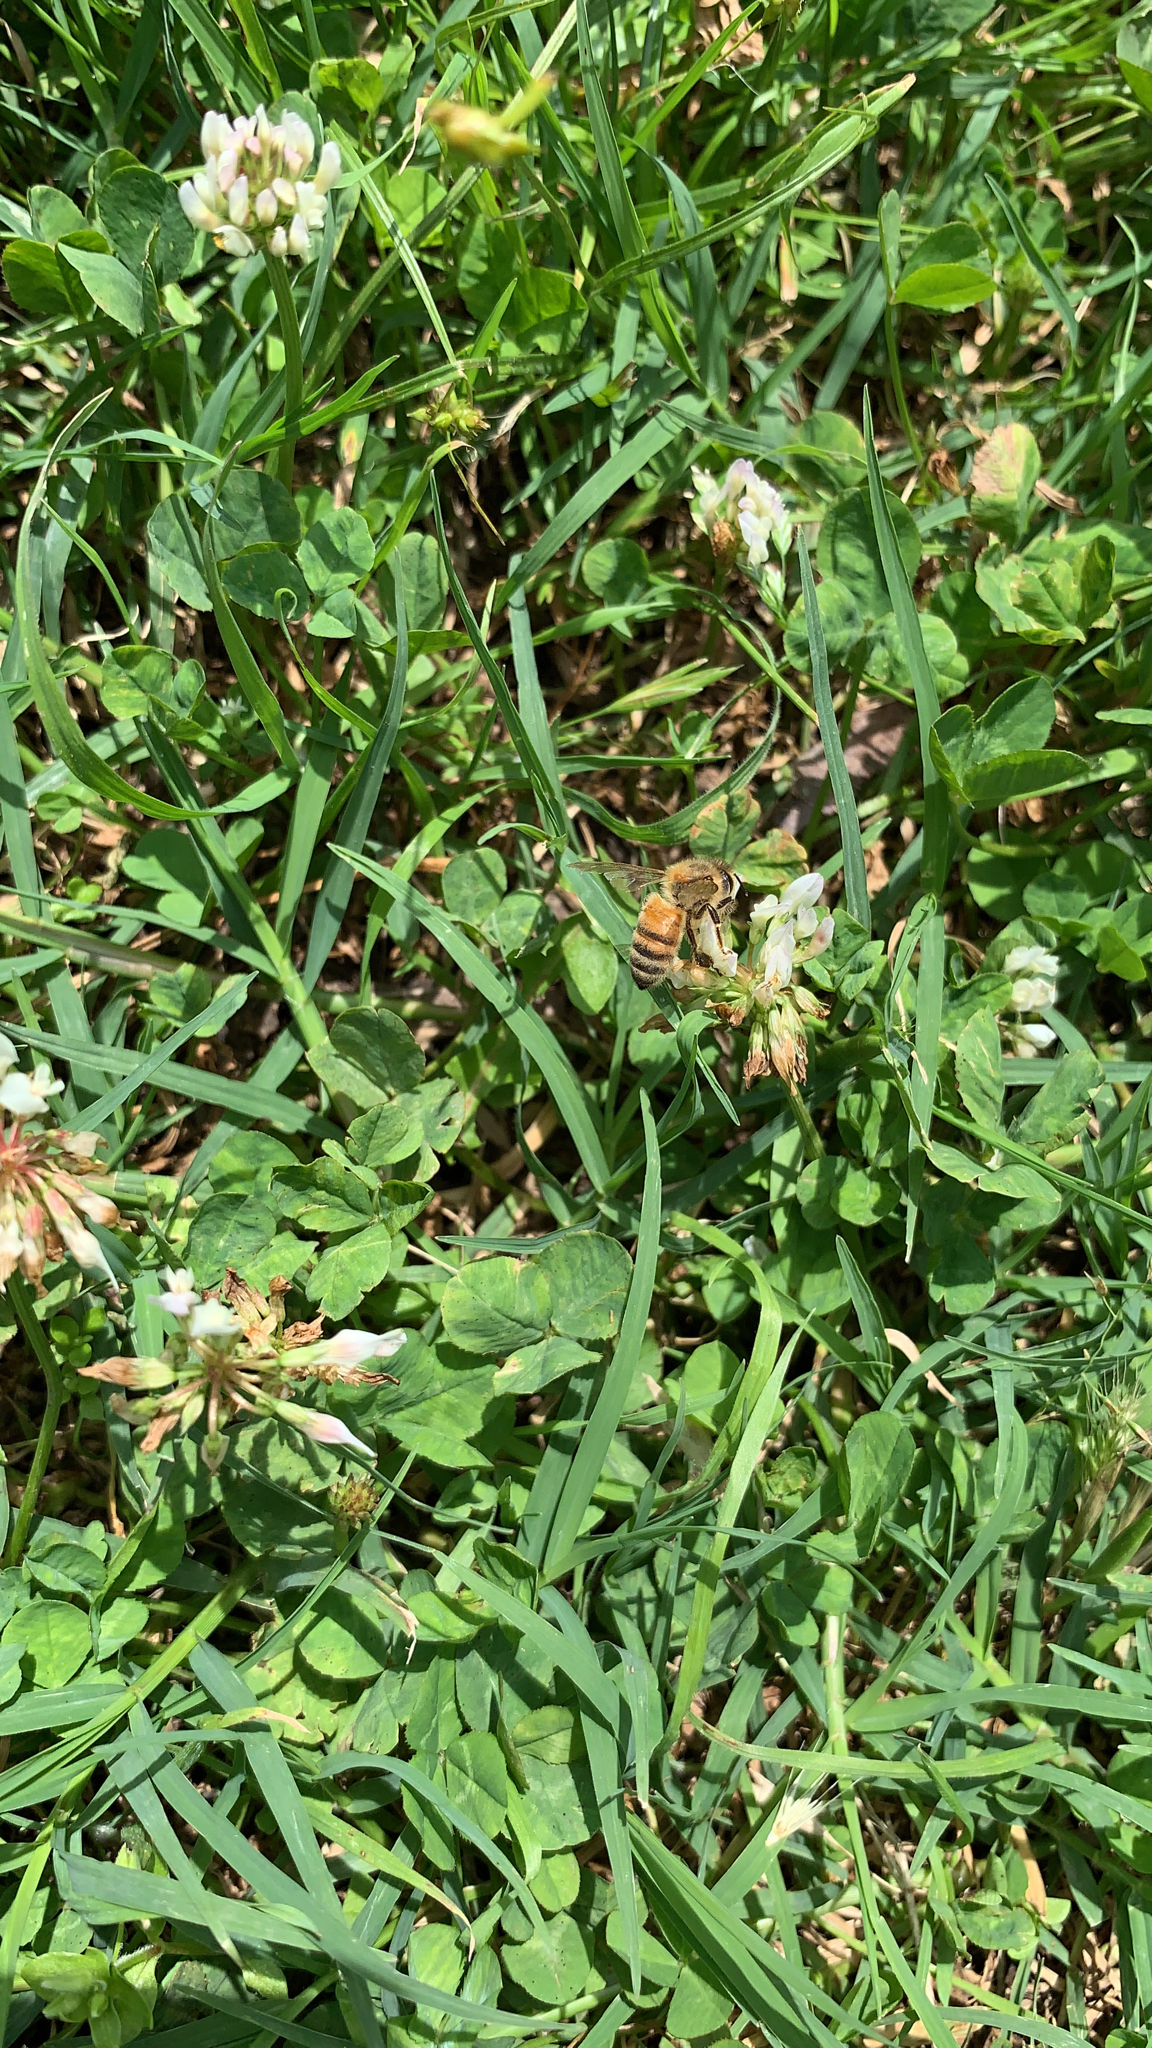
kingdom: Animalia
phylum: Arthropoda
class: Insecta
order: Hymenoptera
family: Apidae
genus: Apis
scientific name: Apis mellifera
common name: Honey bee
